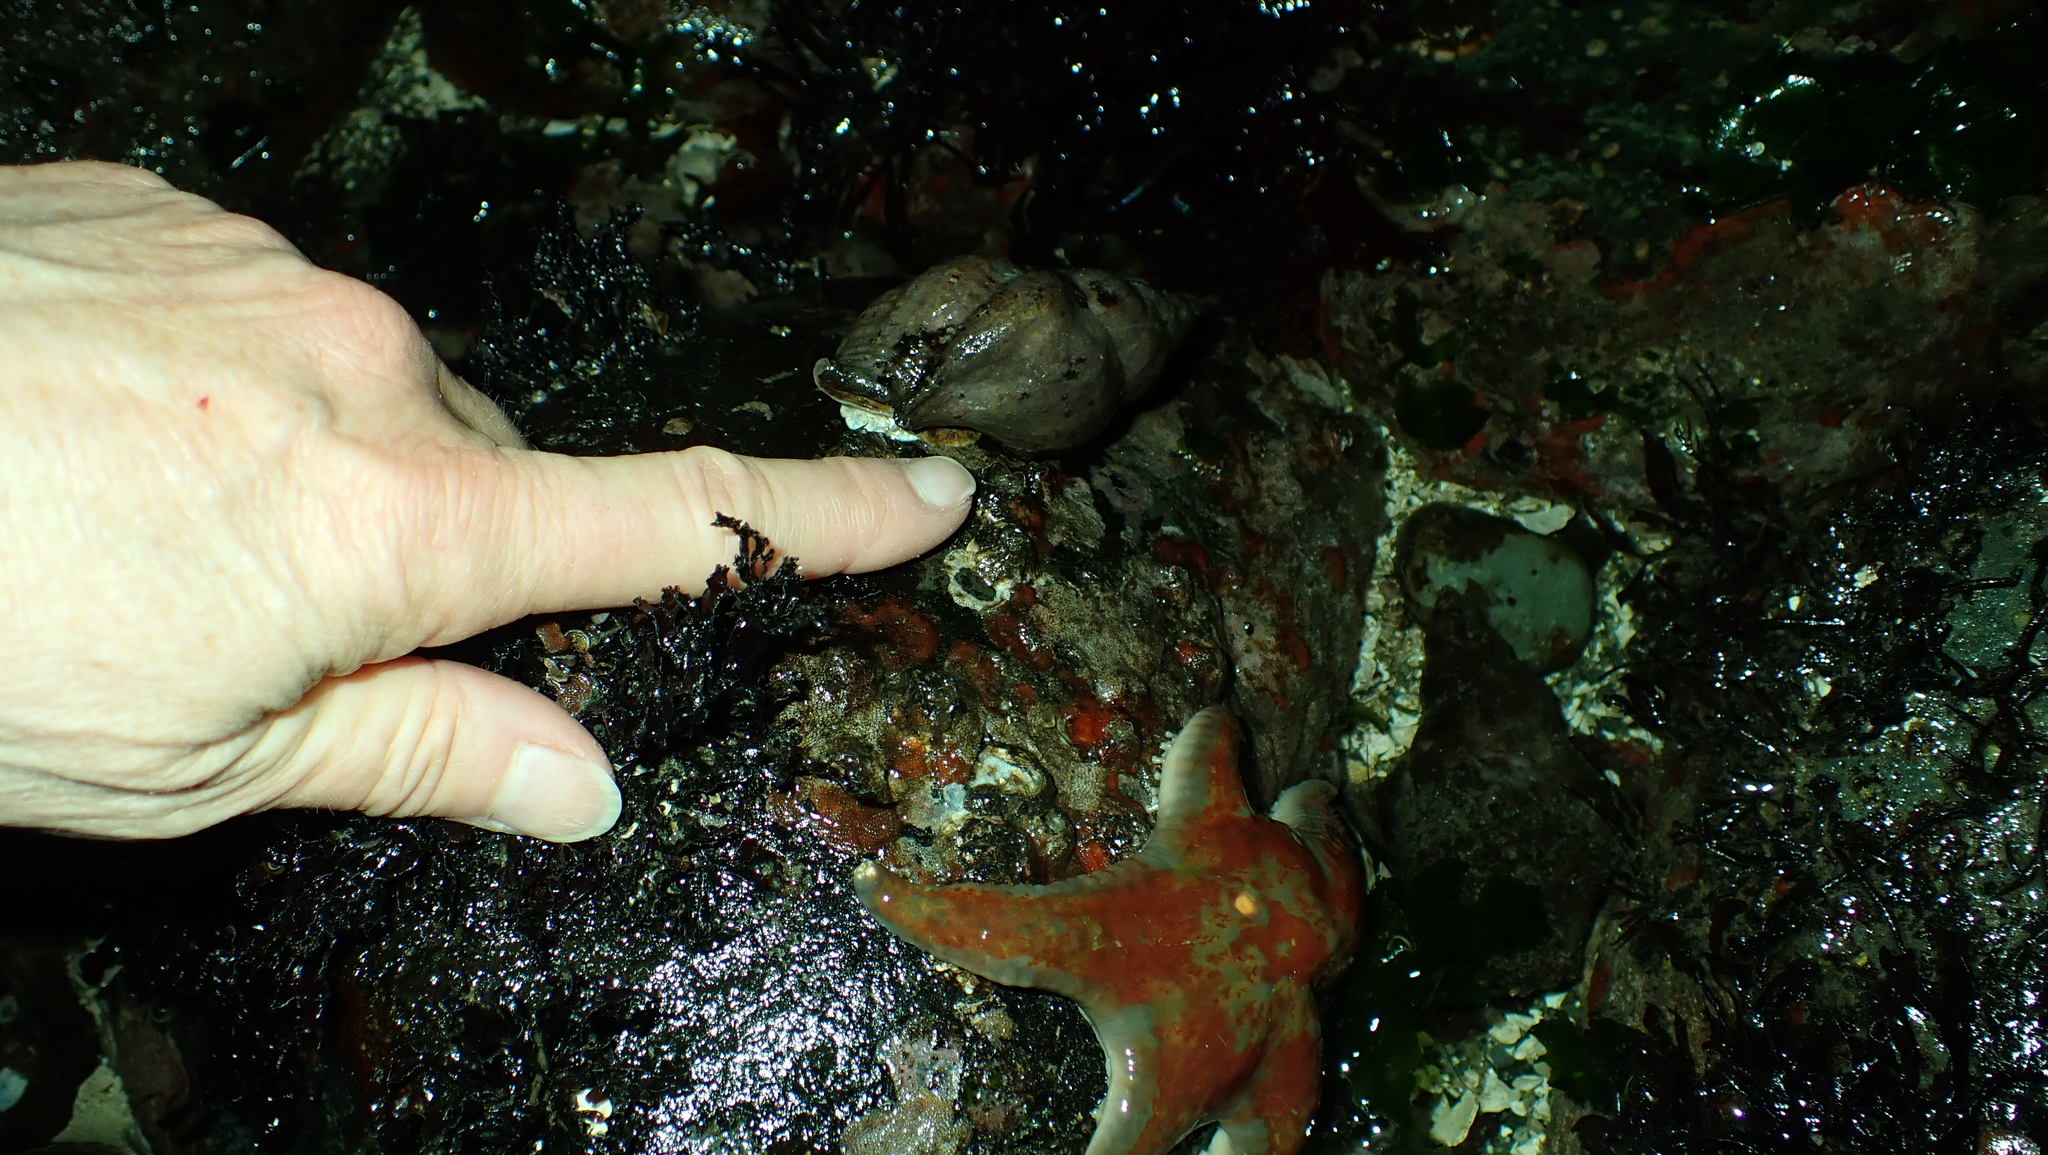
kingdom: Animalia
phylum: Mollusca
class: Gastropoda
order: Neogastropoda
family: Muricidae
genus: Nucella
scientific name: Nucella lamellosa
